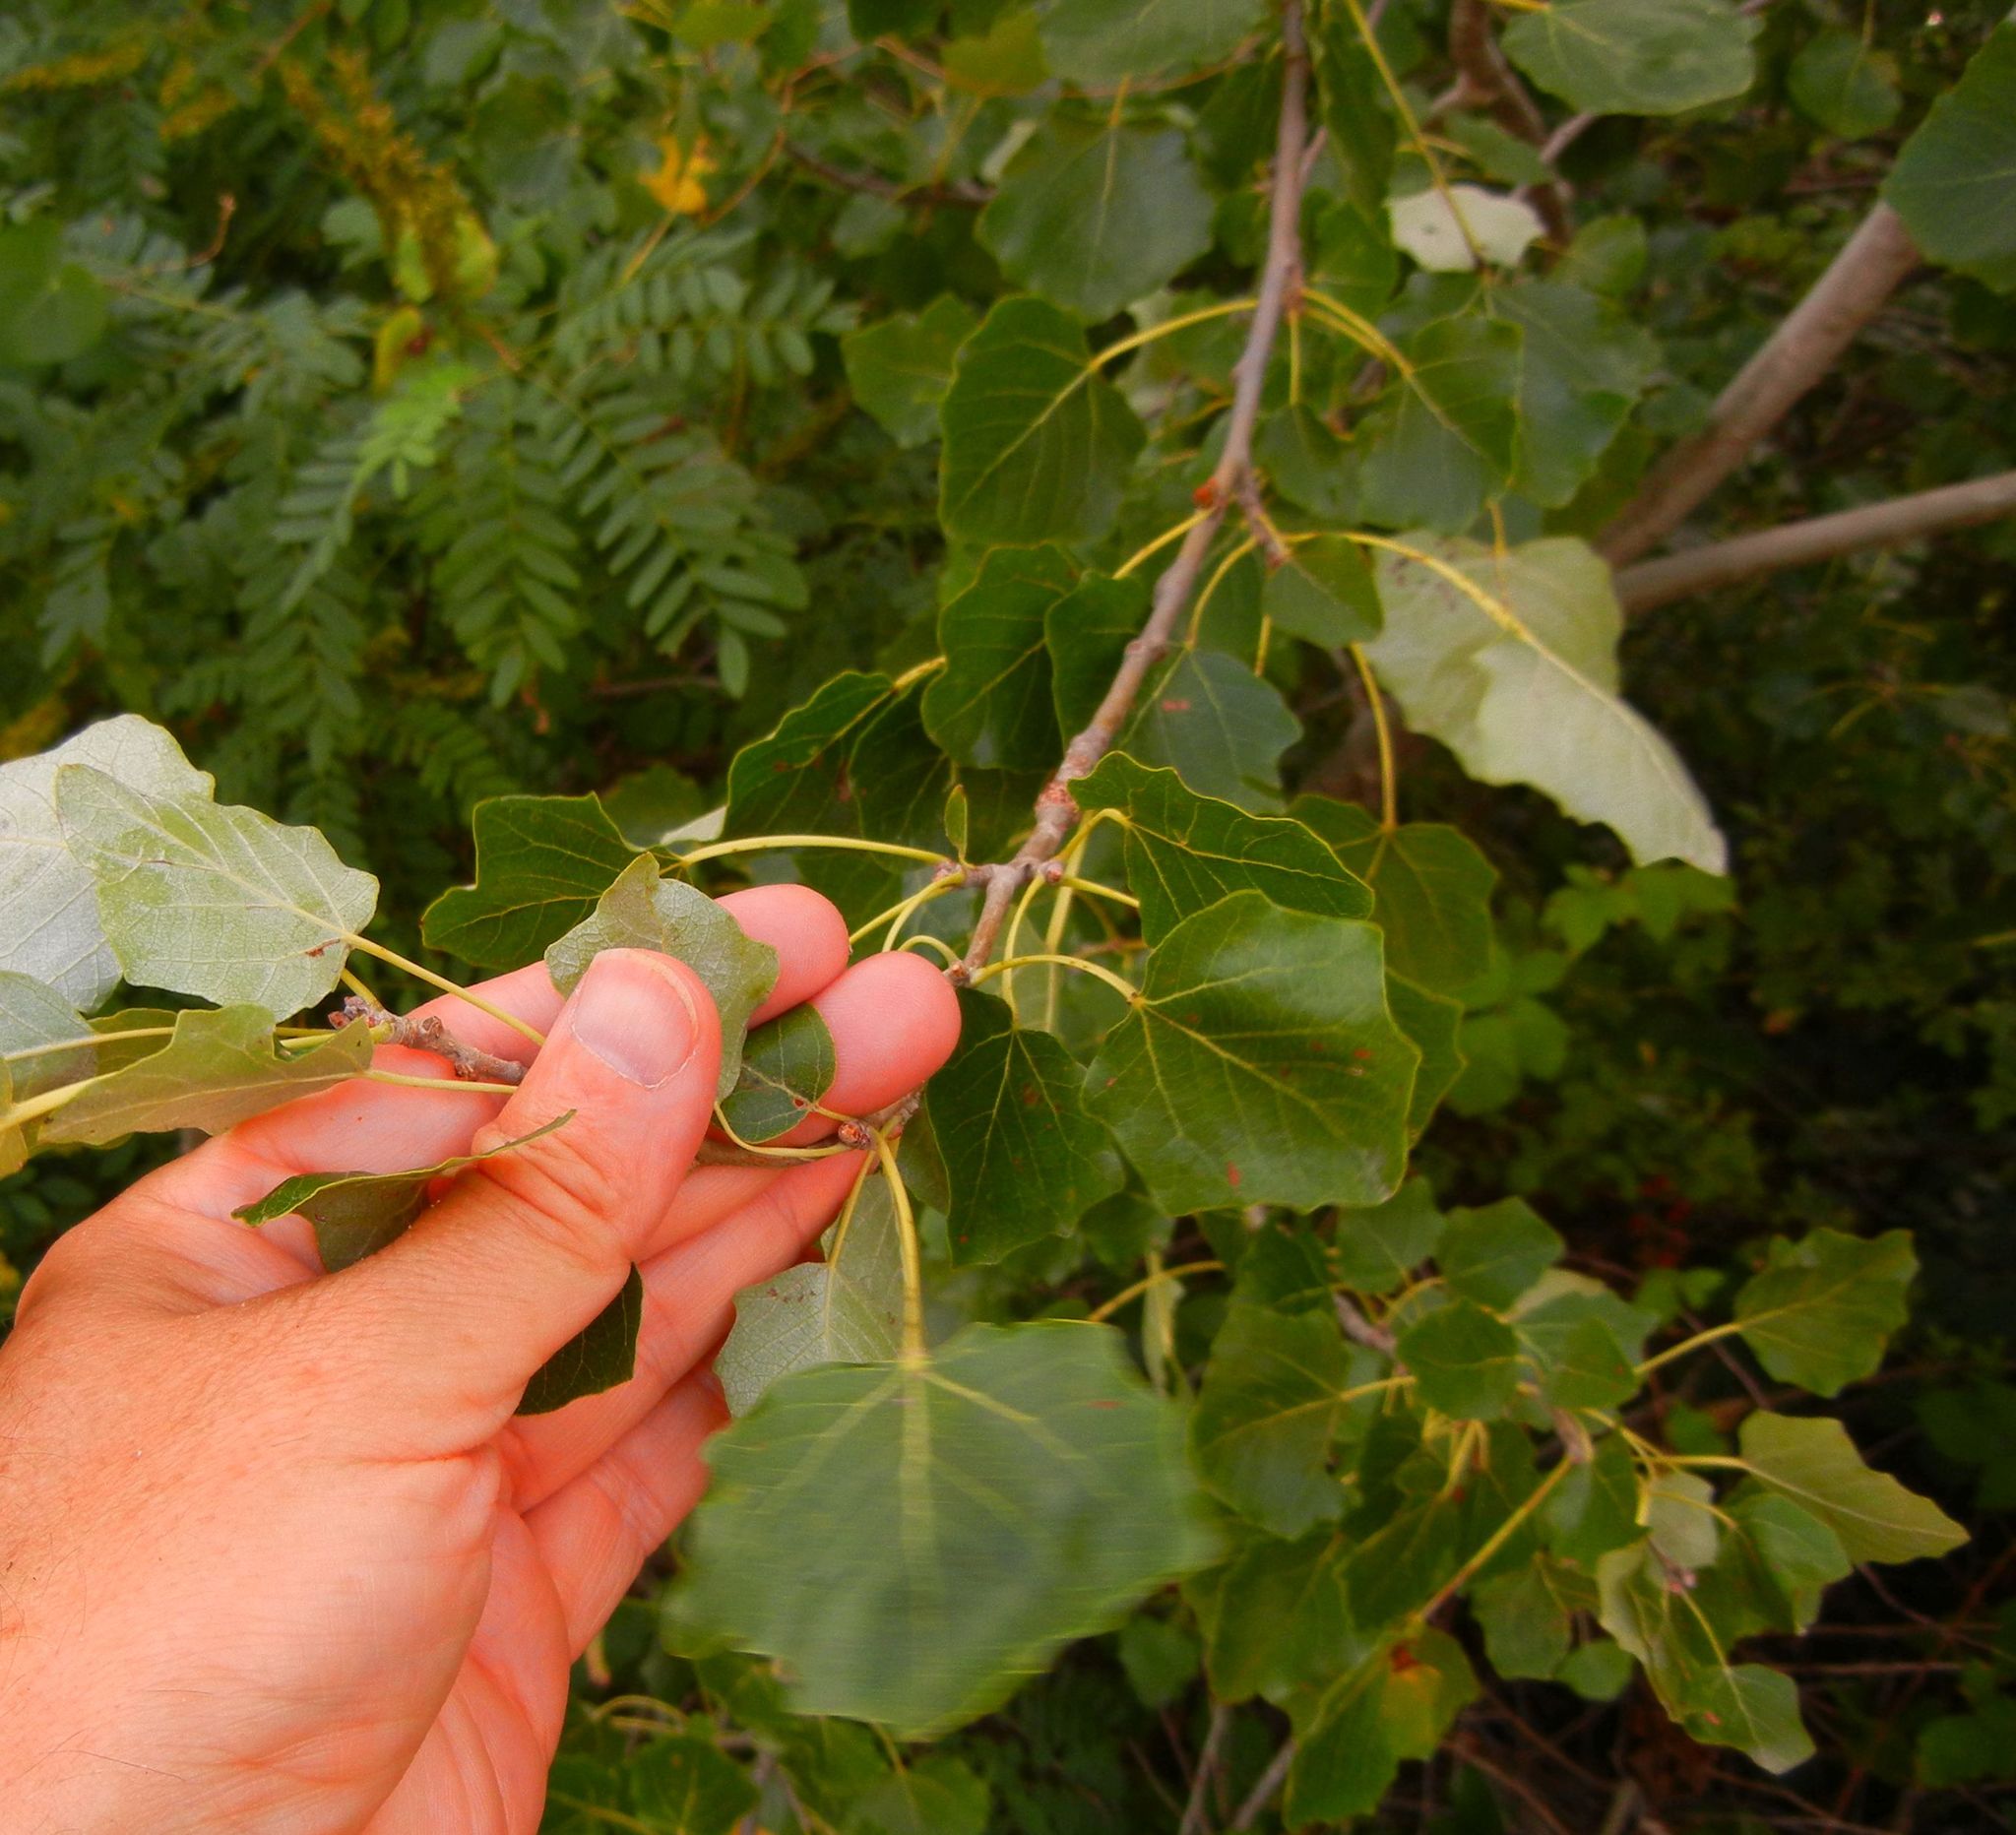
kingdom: Plantae
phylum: Tracheophyta
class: Magnoliopsida
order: Malpighiales
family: Salicaceae
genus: Populus
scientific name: Populus alba
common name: White poplar
